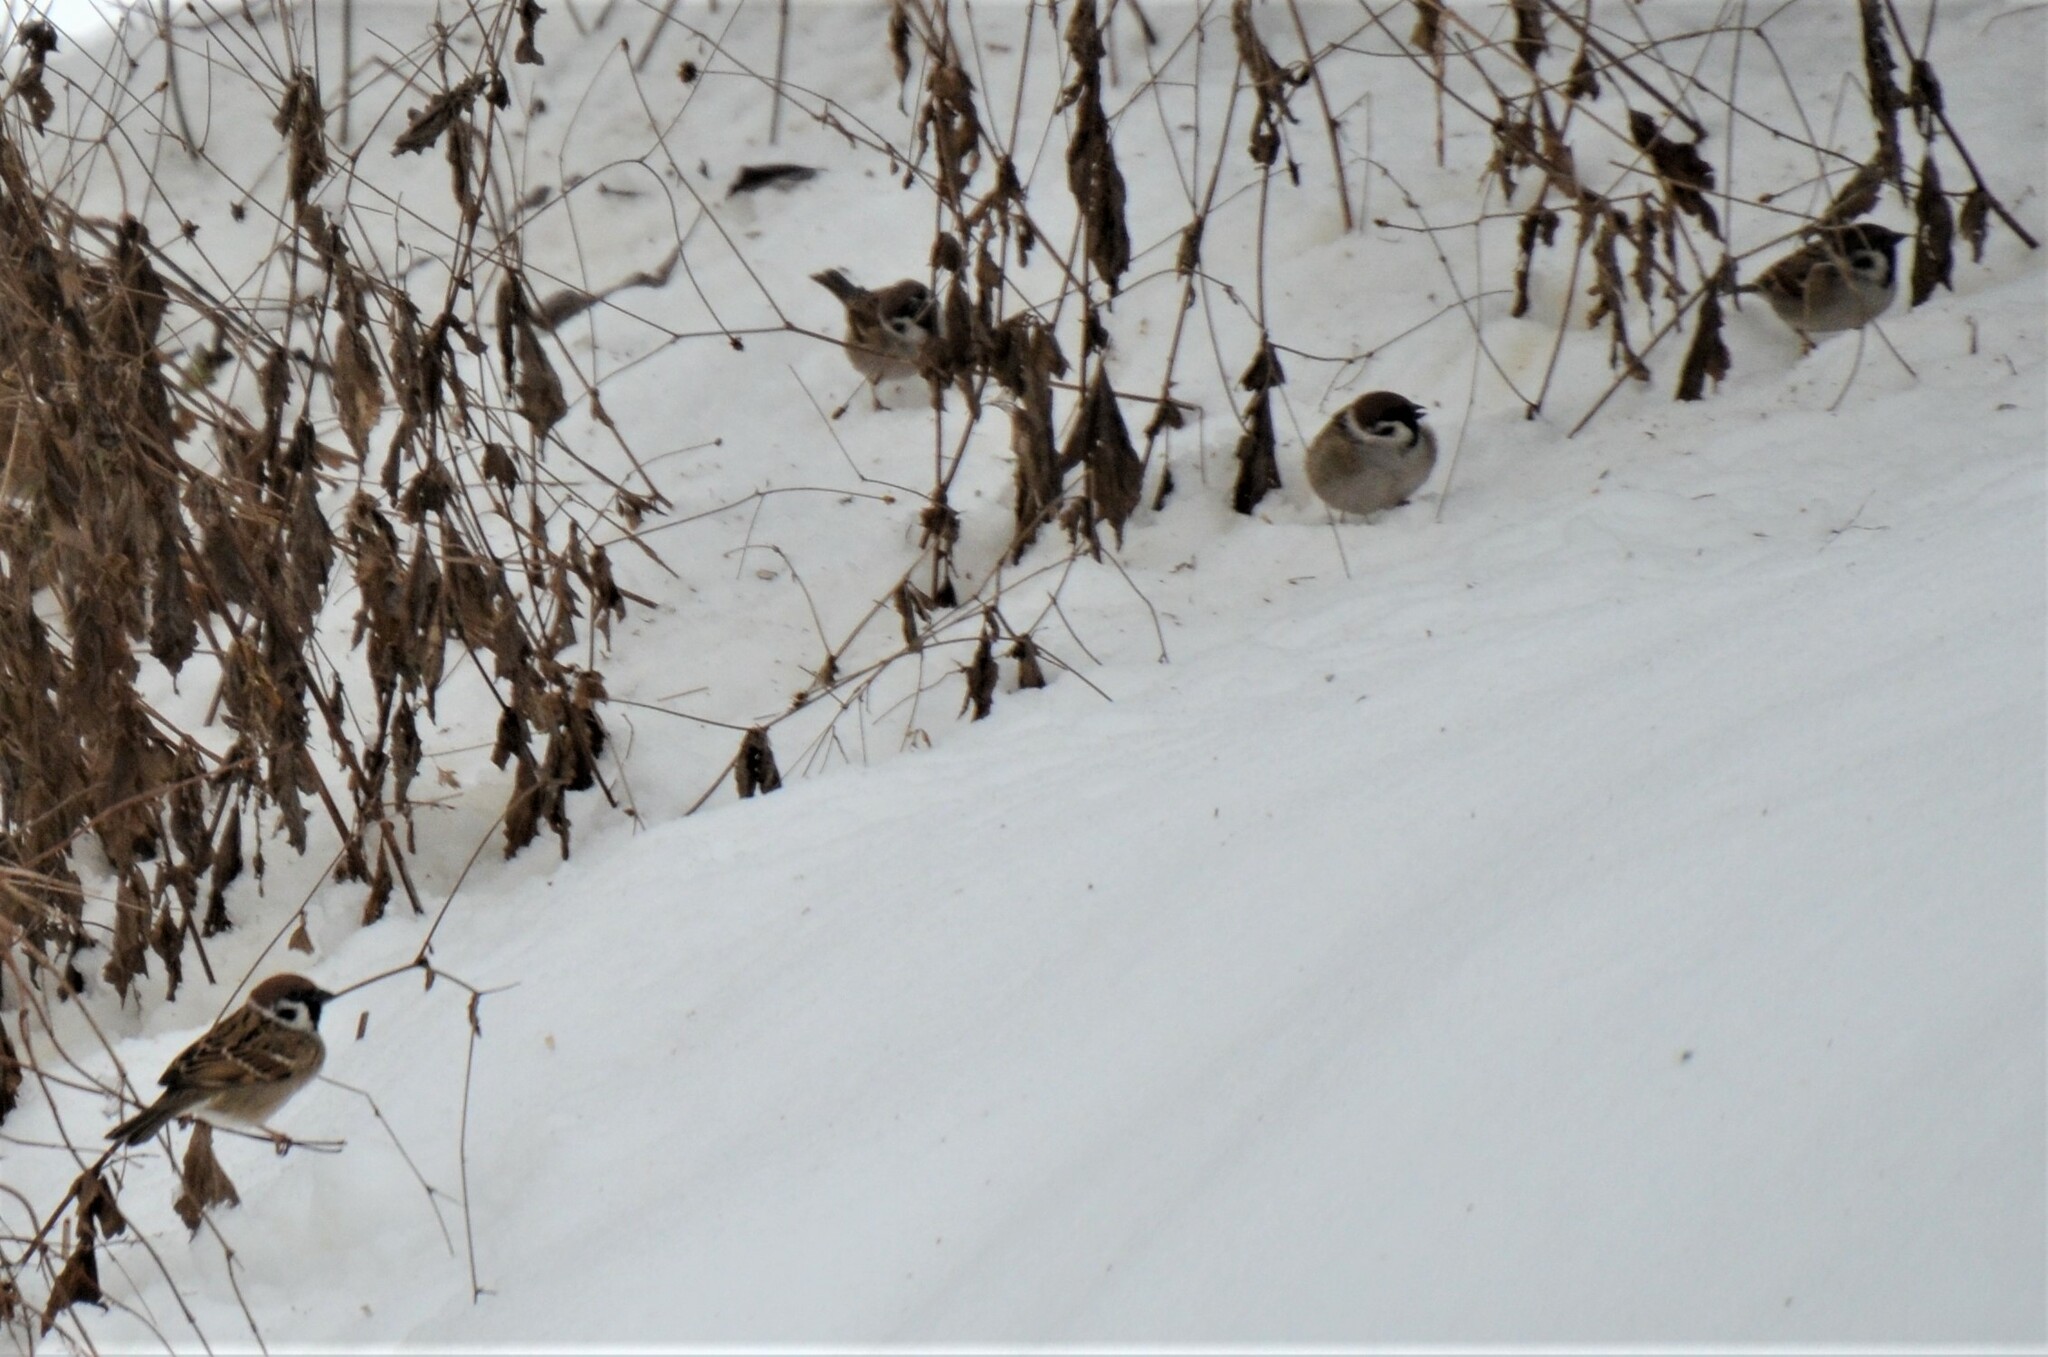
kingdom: Animalia
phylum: Chordata
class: Aves
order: Passeriformes
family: Passeridae
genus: Passer
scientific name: Passer montanus
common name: Eurasian tree sparrow
